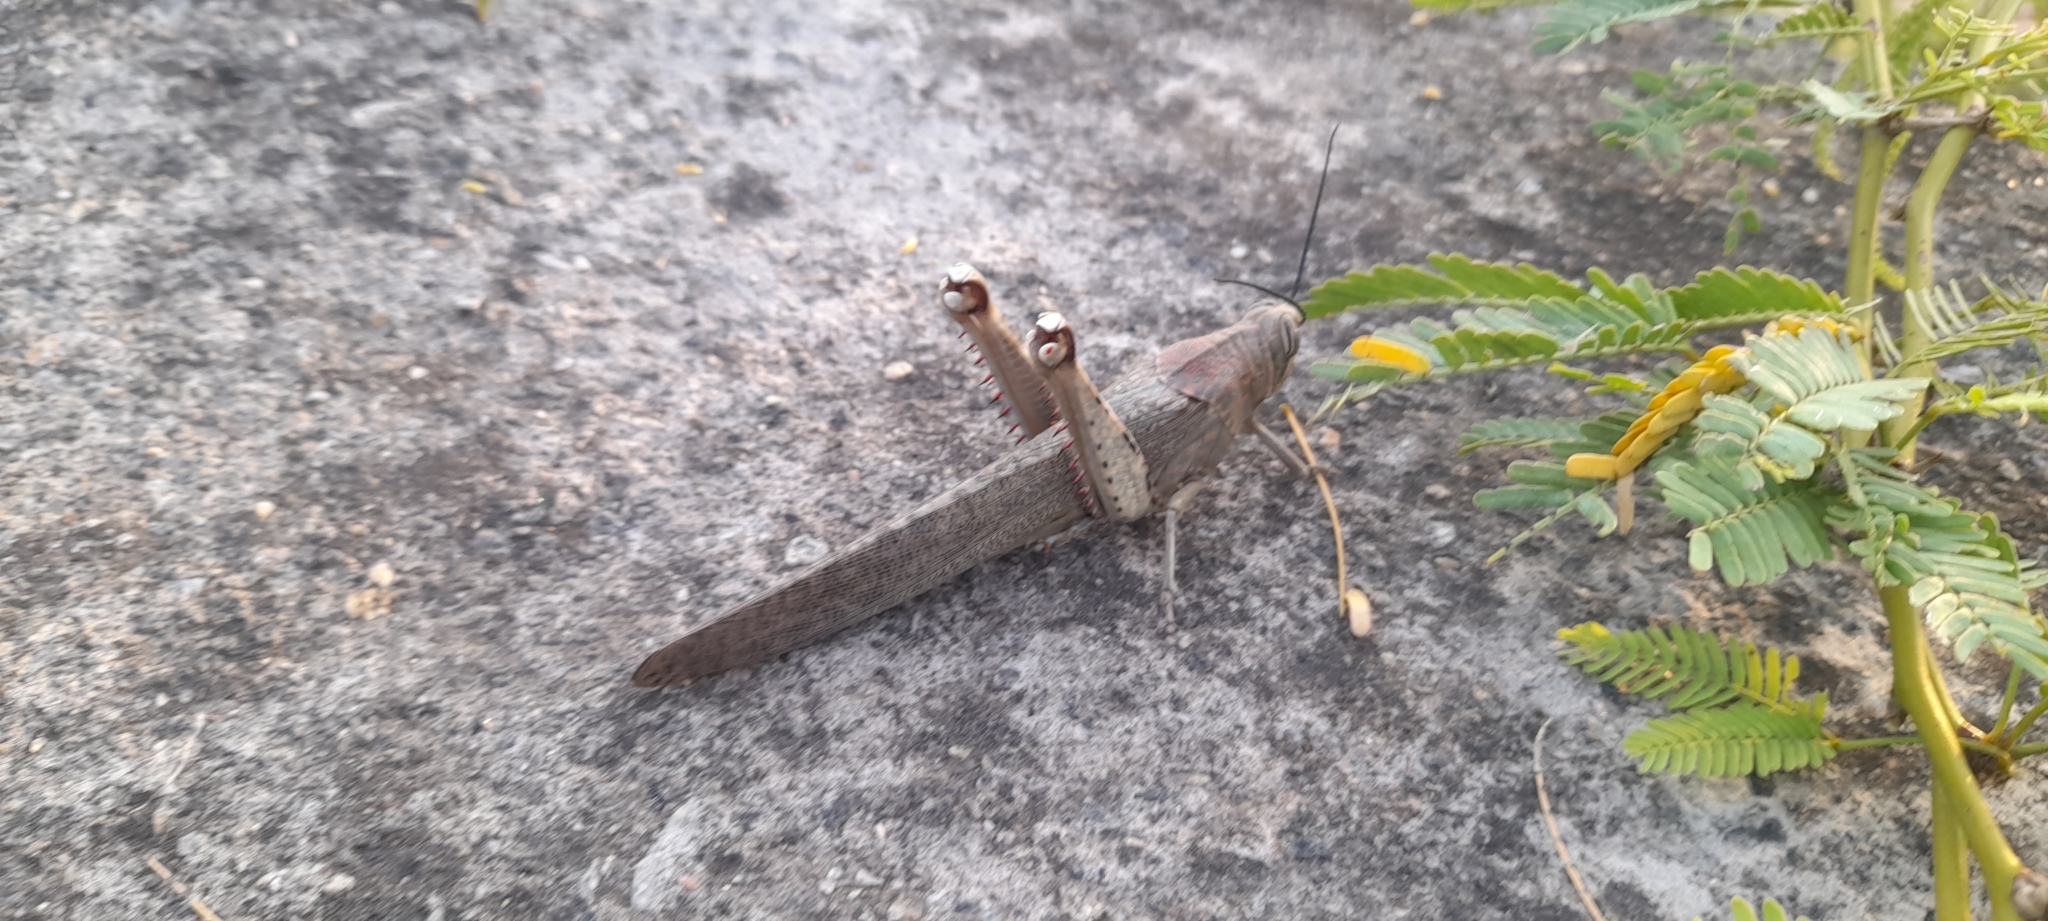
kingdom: Animalia
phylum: Arthropoda
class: Insecta
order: Orthoptera
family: Acrididae
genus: Anacridium
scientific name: Anacridium flavescens
